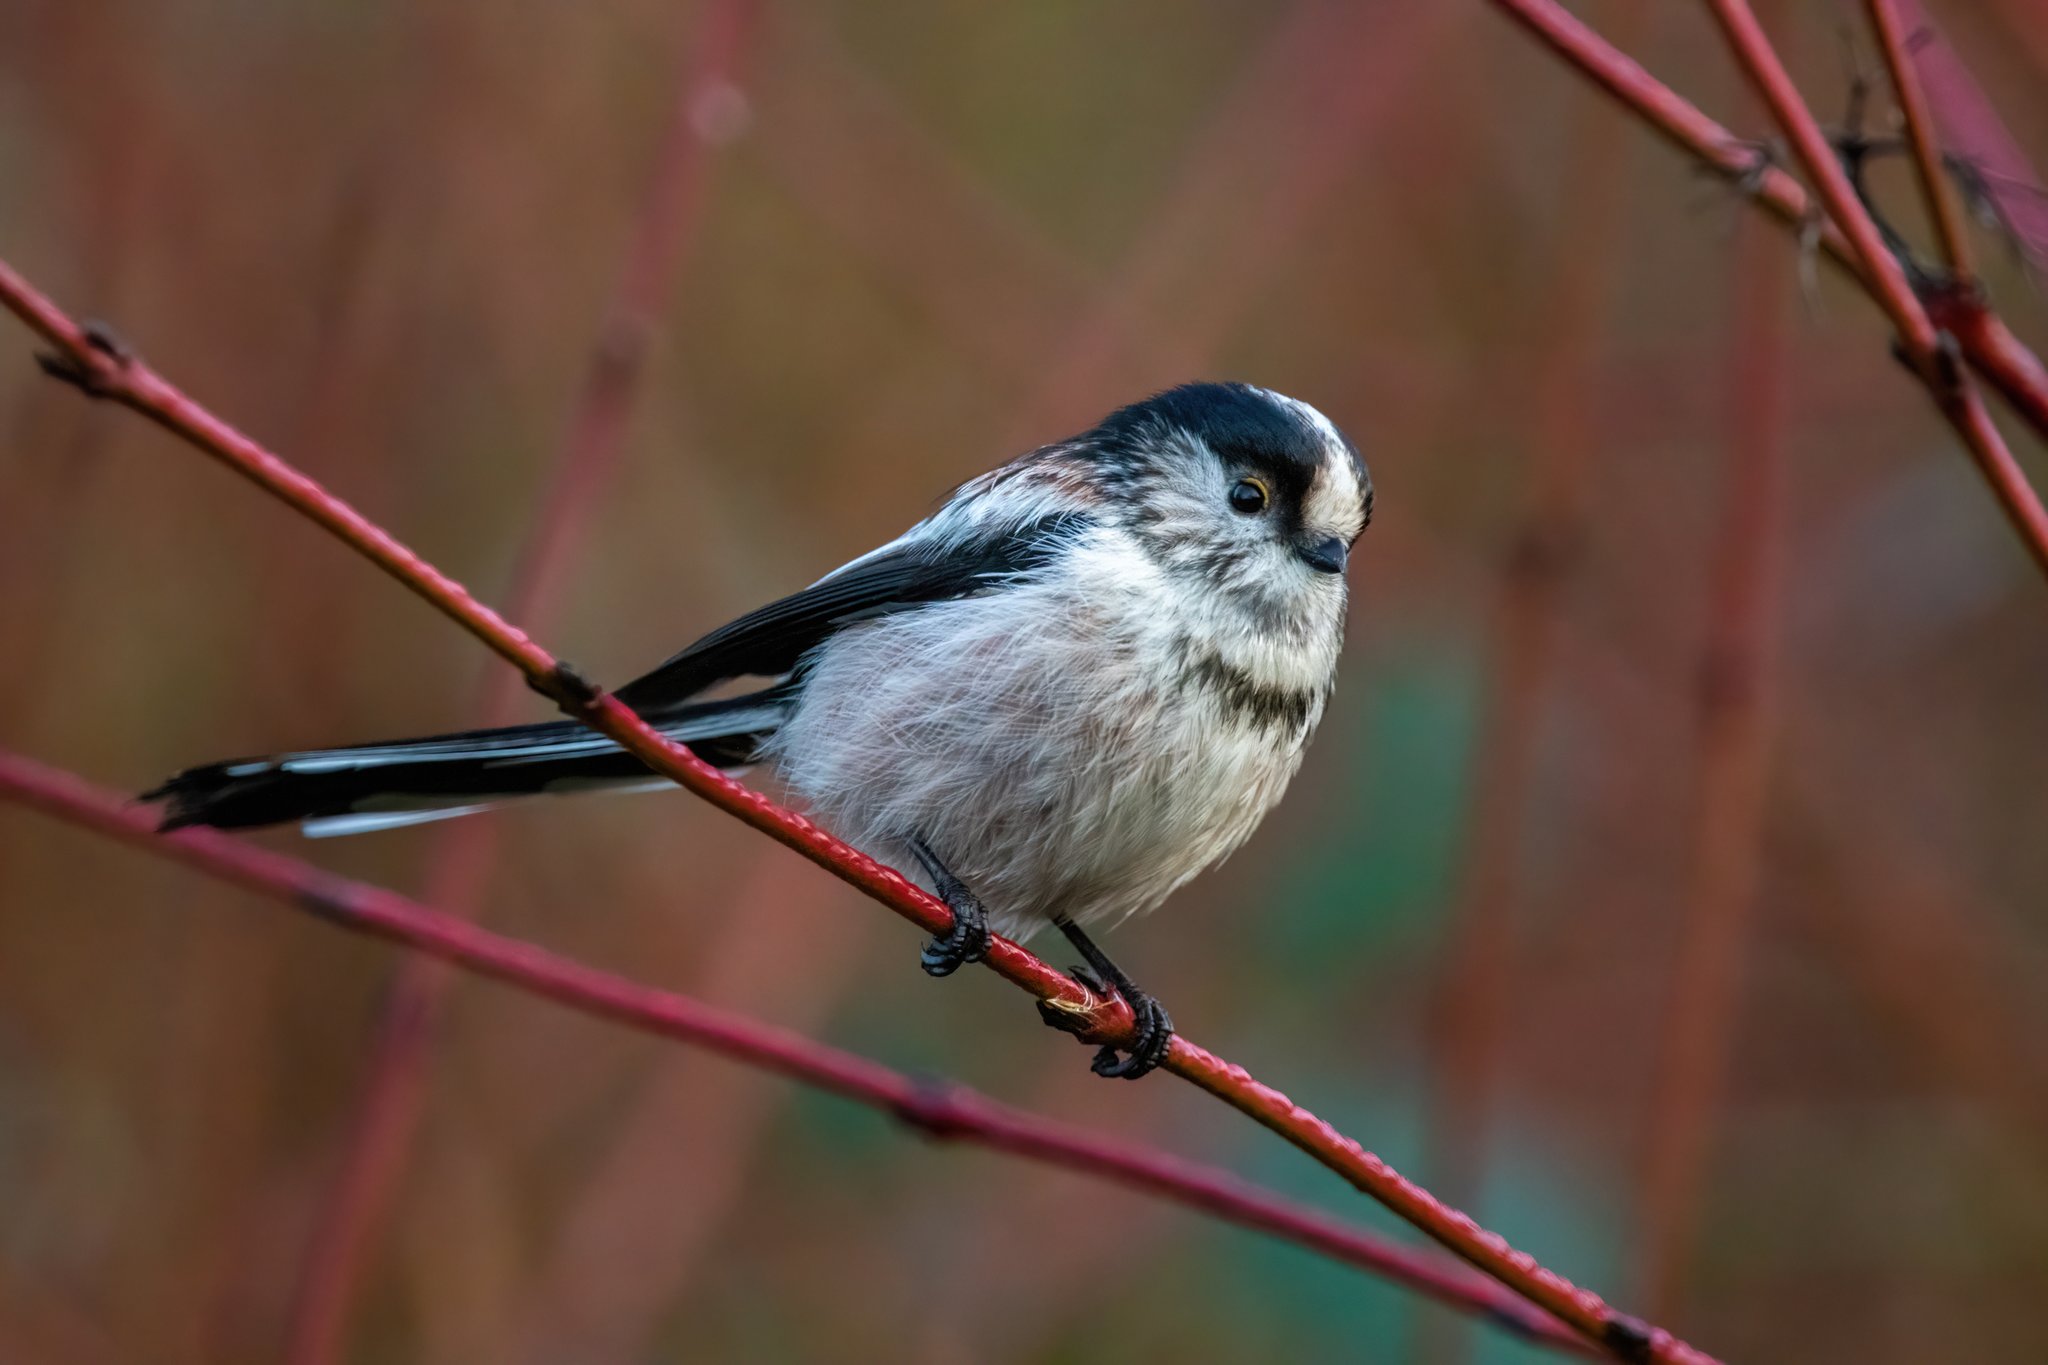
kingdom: Animalia
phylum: Chordata
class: Aves
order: Passeriformes
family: Aegithalidae
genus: Aegithalos
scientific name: Aegithalos caudatus
